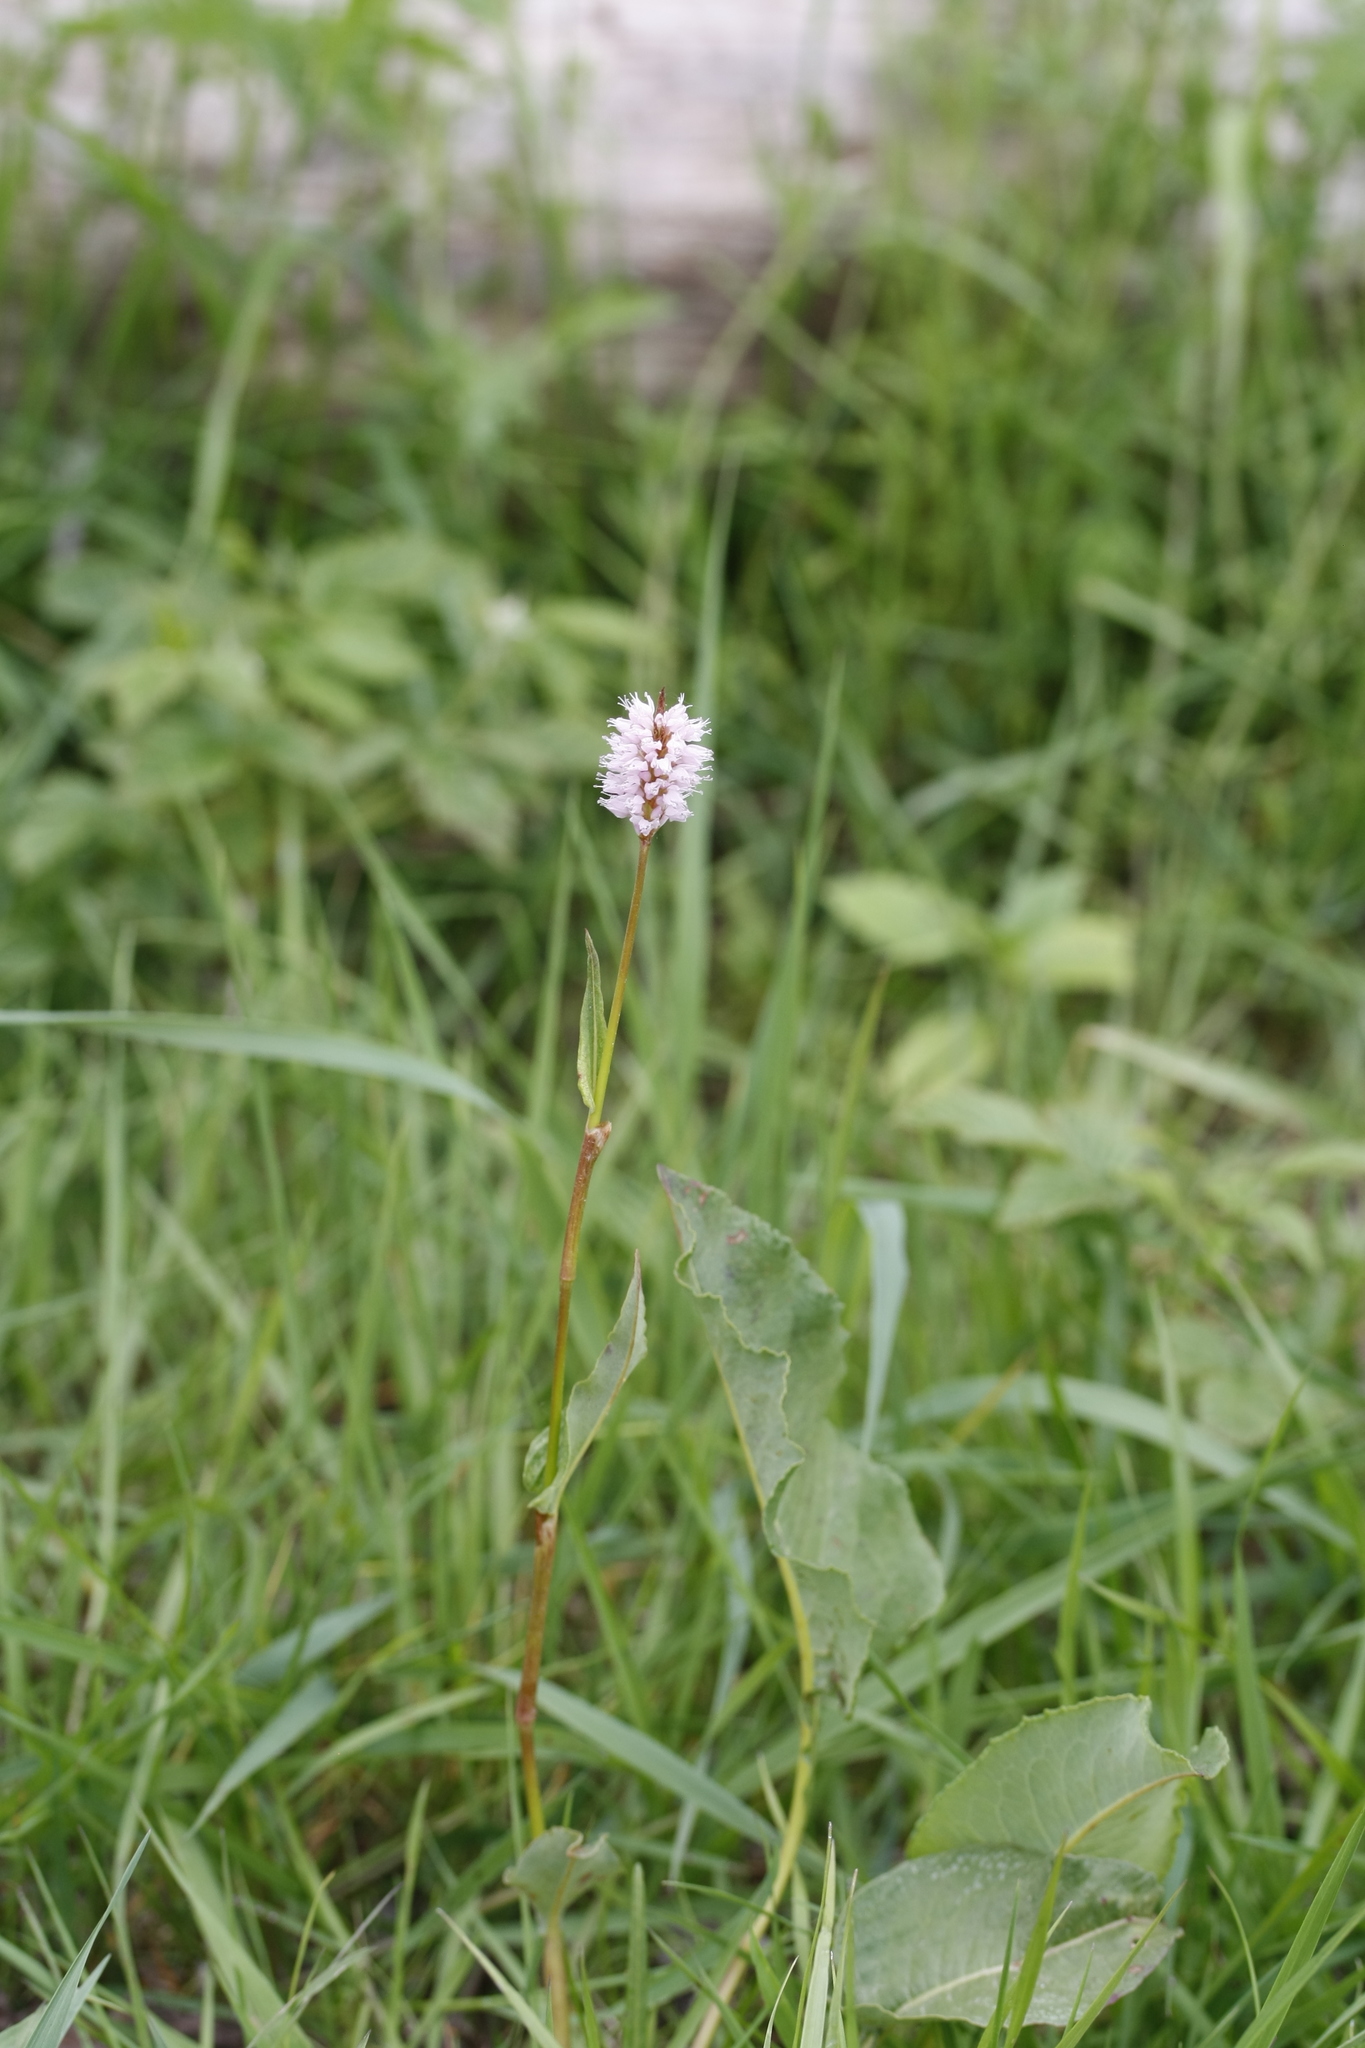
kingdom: Plantae
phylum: Tracheophyta
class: Magnoliopsida
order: Caryophyllales
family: Polygonaceae
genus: Bistorta
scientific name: Bistorta officinalis
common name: Common bistort
